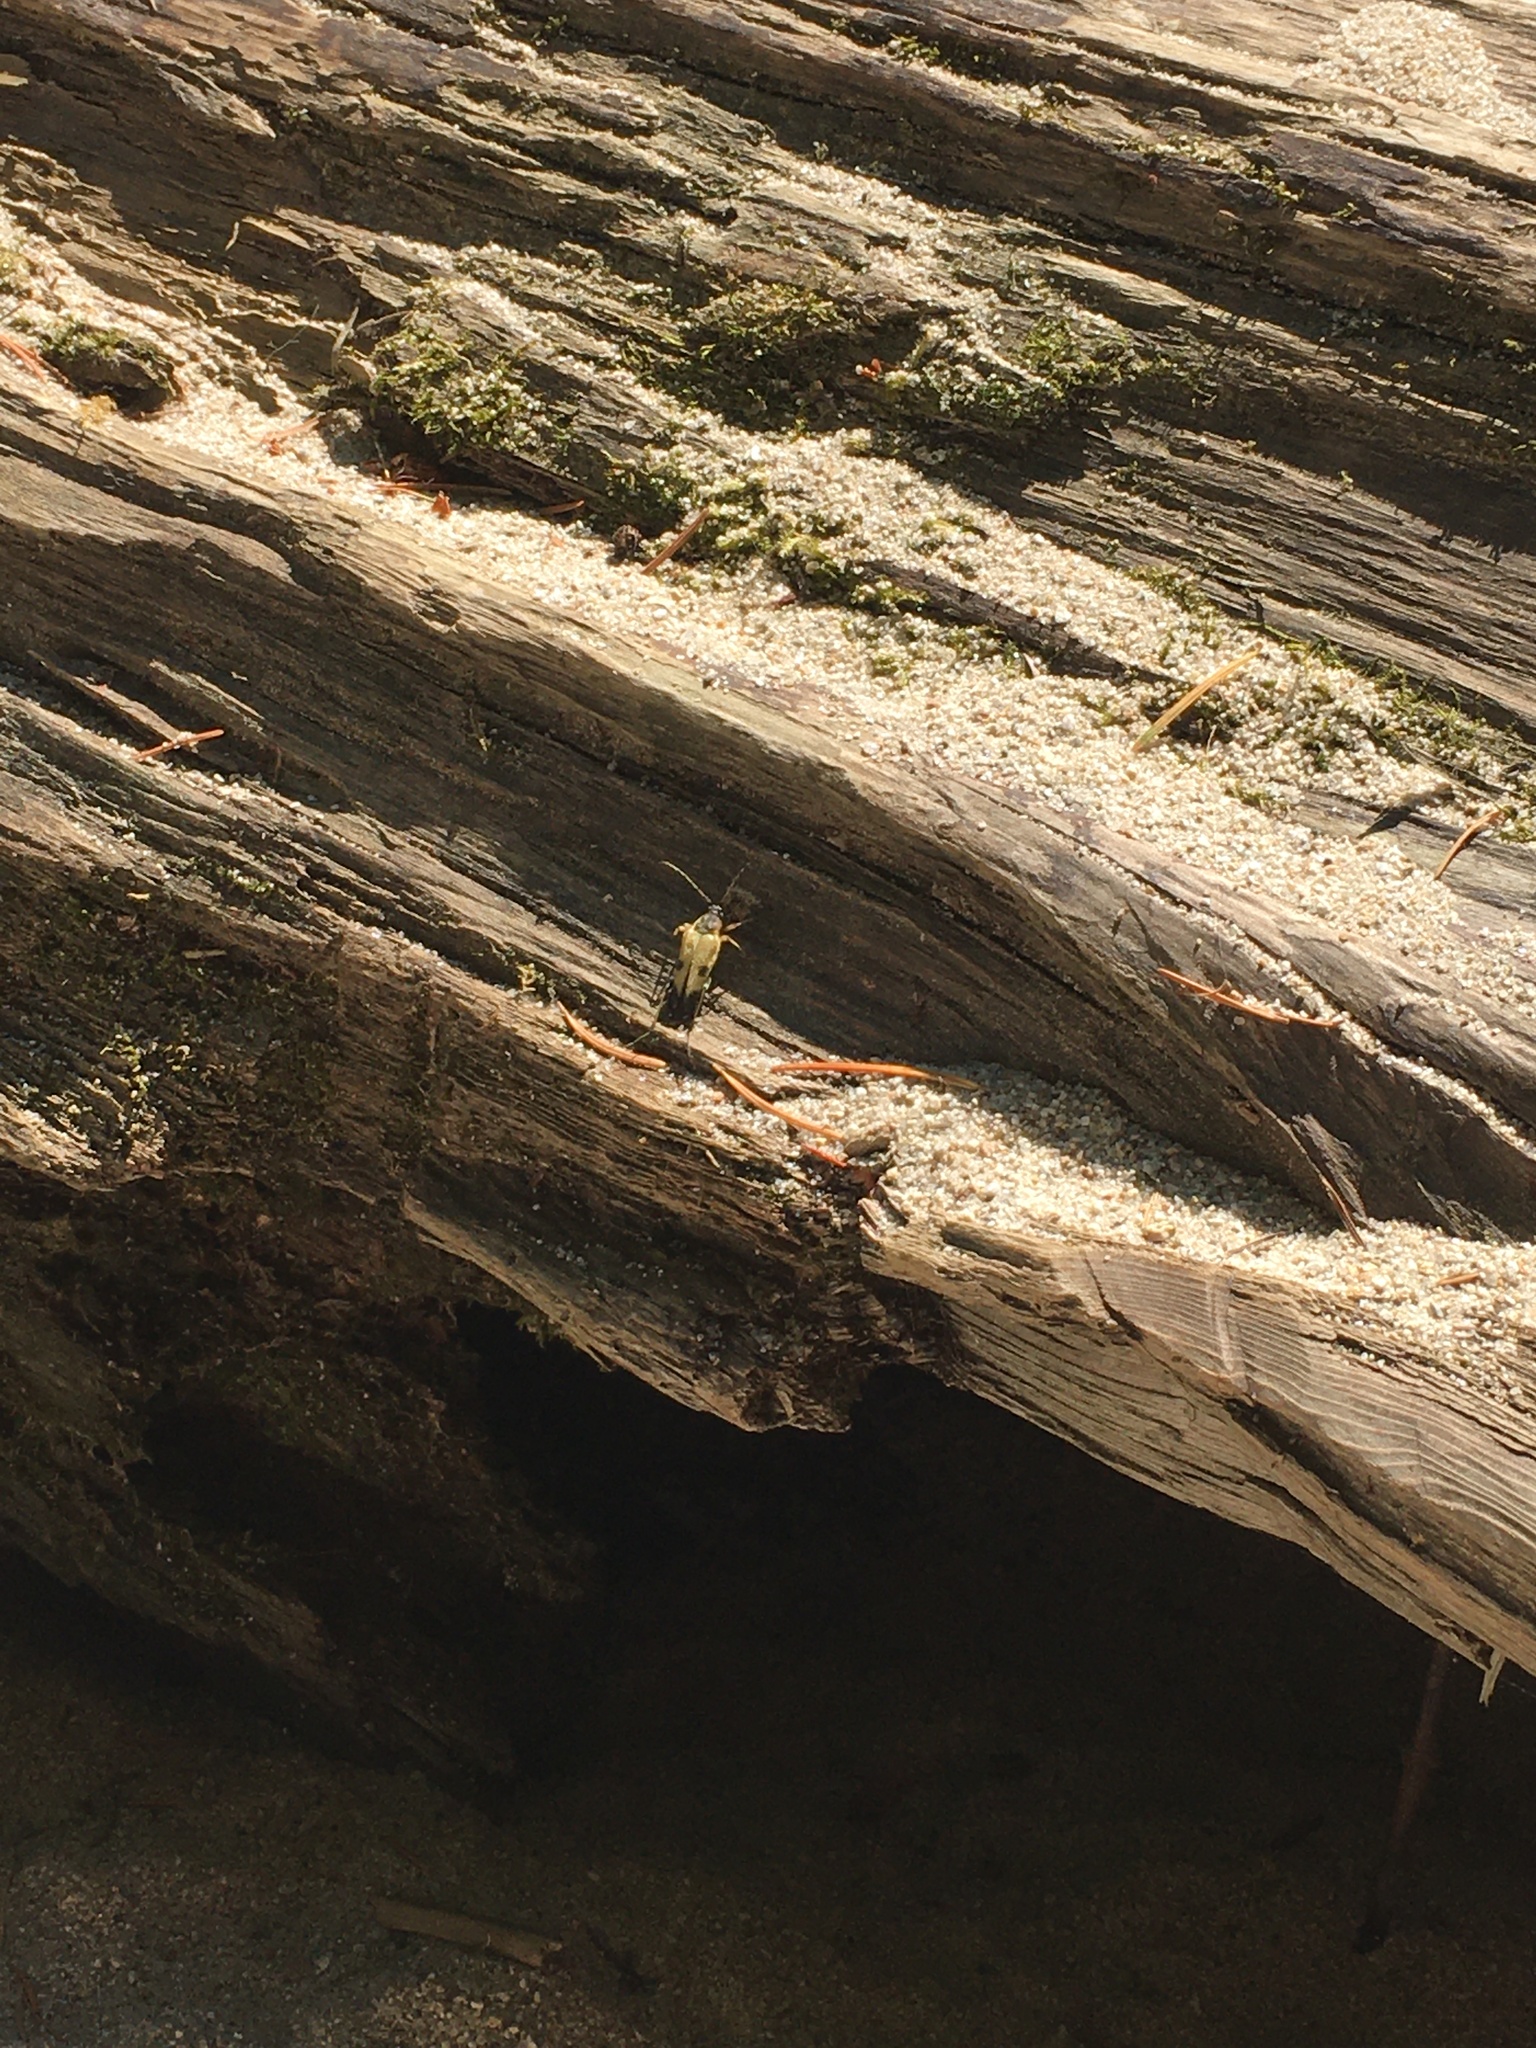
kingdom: Animalia
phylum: Arthropoda
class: Insecta
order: Coleoptera
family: Cerambycidae
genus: Etorofus
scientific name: Etorofus obliteratus
